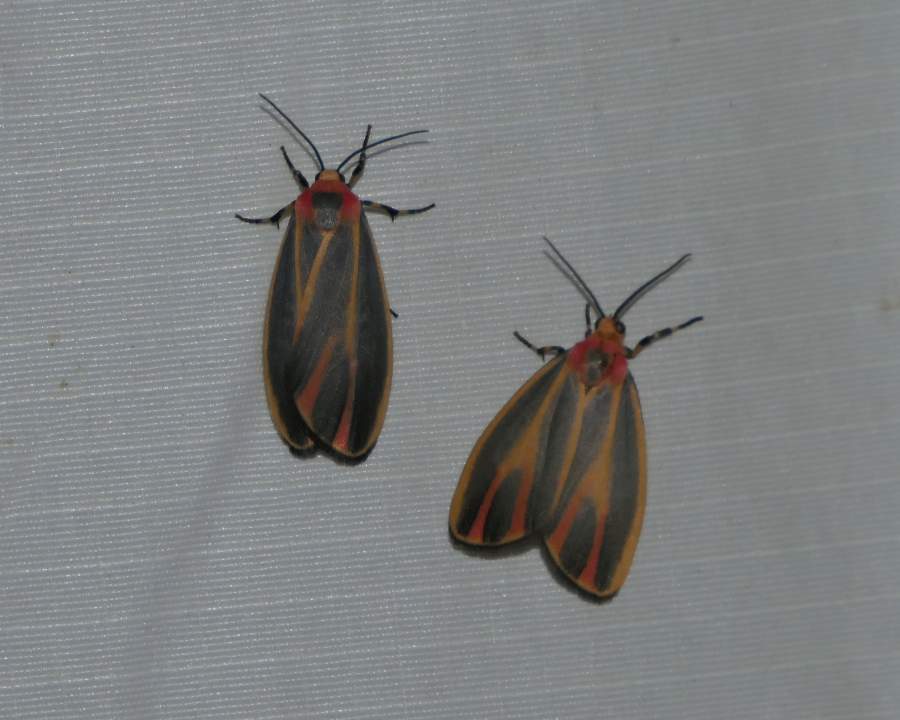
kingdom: Animalia
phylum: Arthropoda
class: Insecta
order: Lepidoptera
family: Erebidae
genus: Hypoprepia
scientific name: Hypoprepia fucosa
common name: Painted lichen moth
